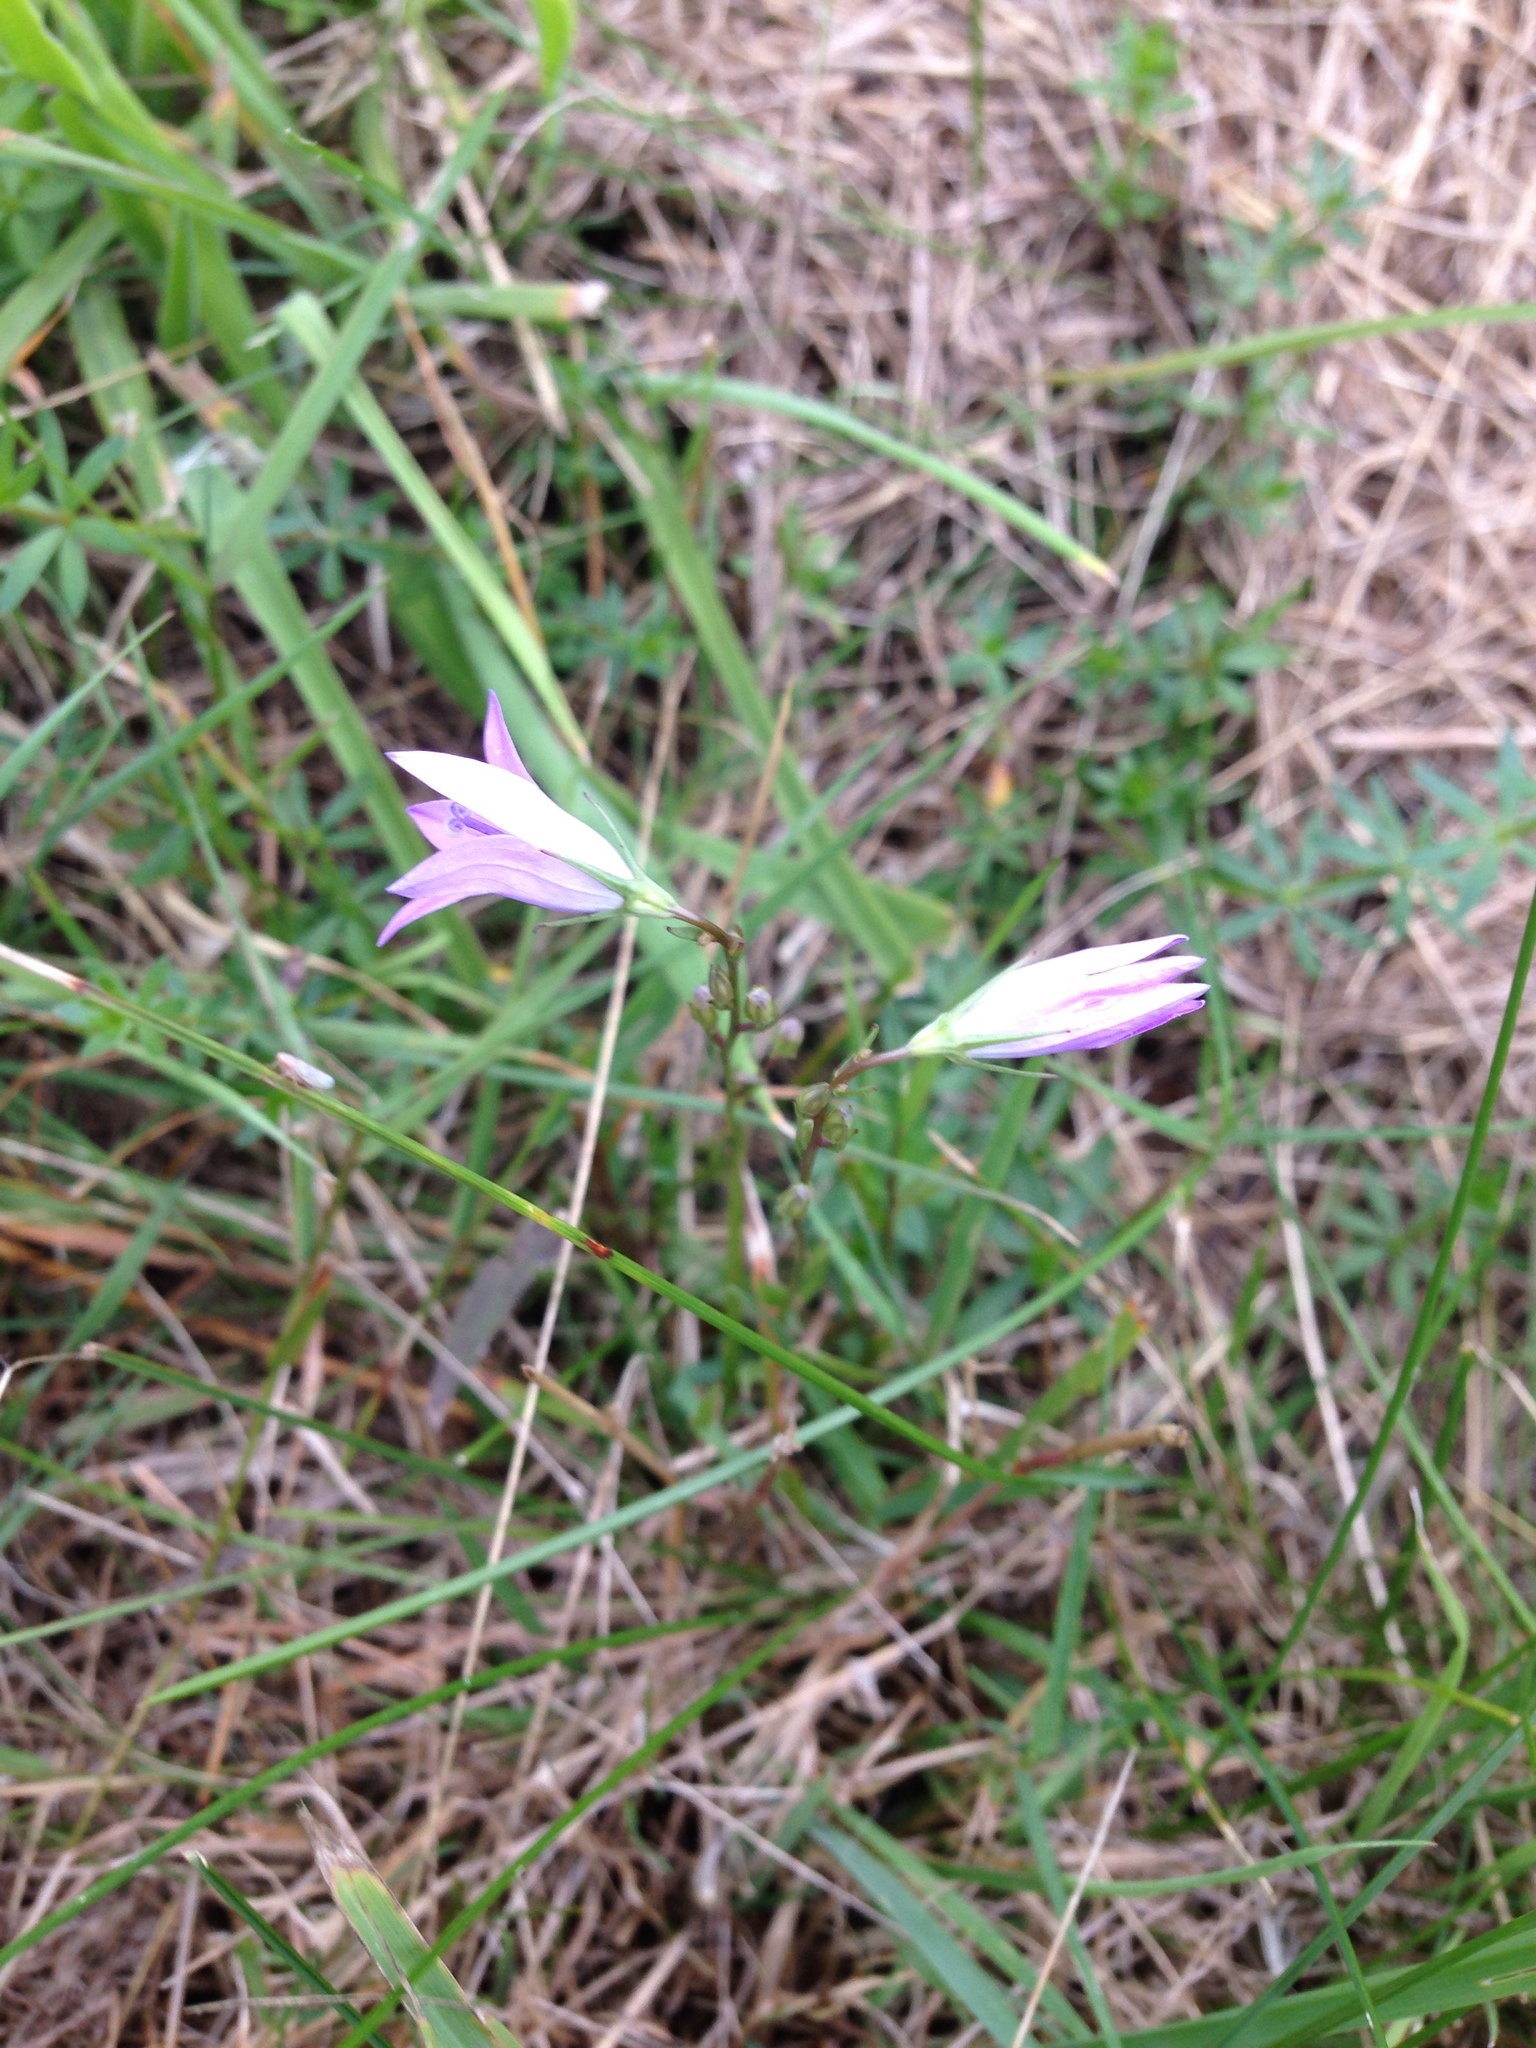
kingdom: Plantae
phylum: Tracheophyta
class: Magnoliopsida
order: Asterales
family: Campanulaceae
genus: Campanula
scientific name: Campanula rapunculus
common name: Rampion bellflower
